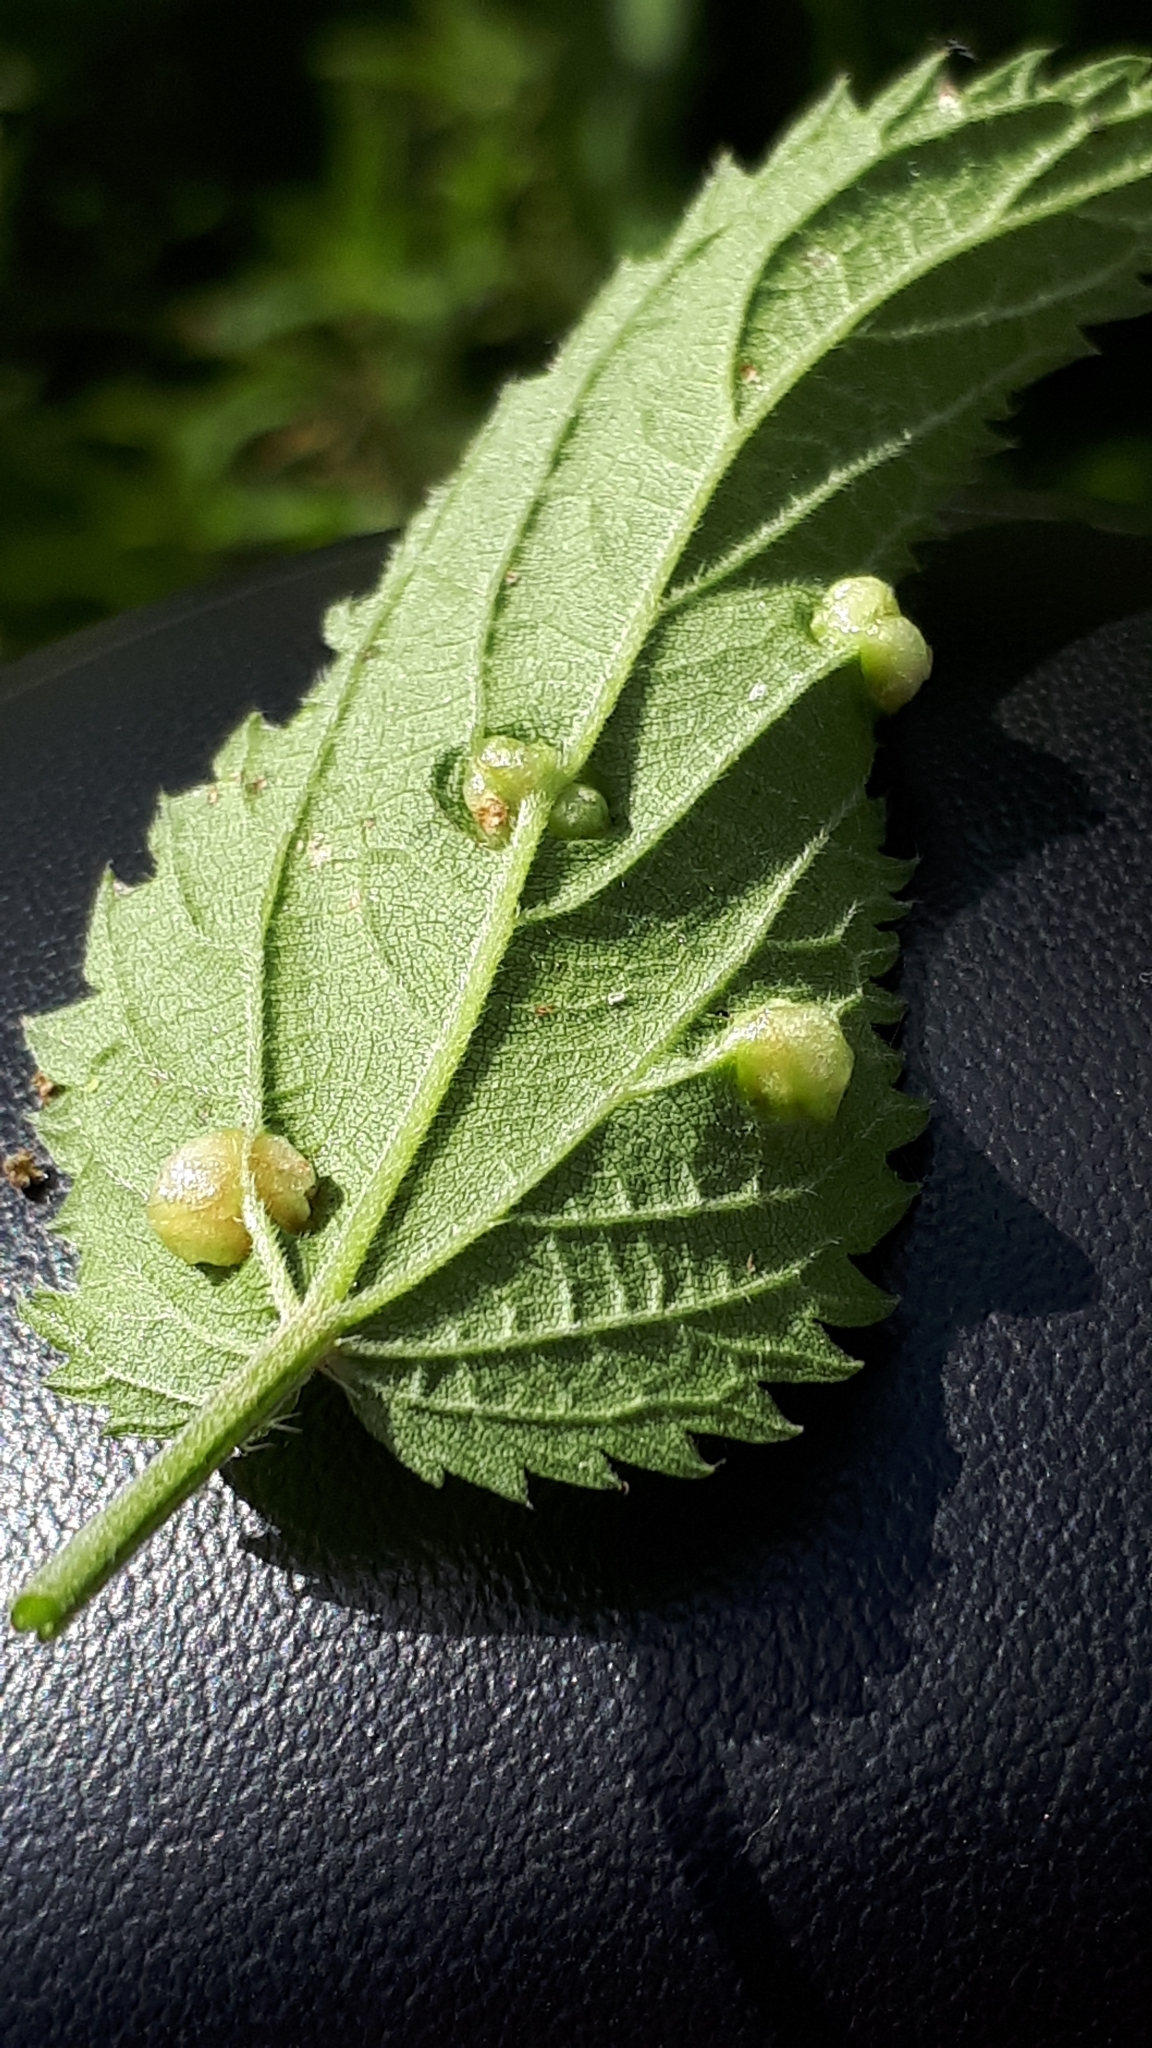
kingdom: Animalia
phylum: Arthropoda
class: Insecta
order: Diptera
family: Cecidomyiidae
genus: Dasineura
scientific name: Dasineura urticae
